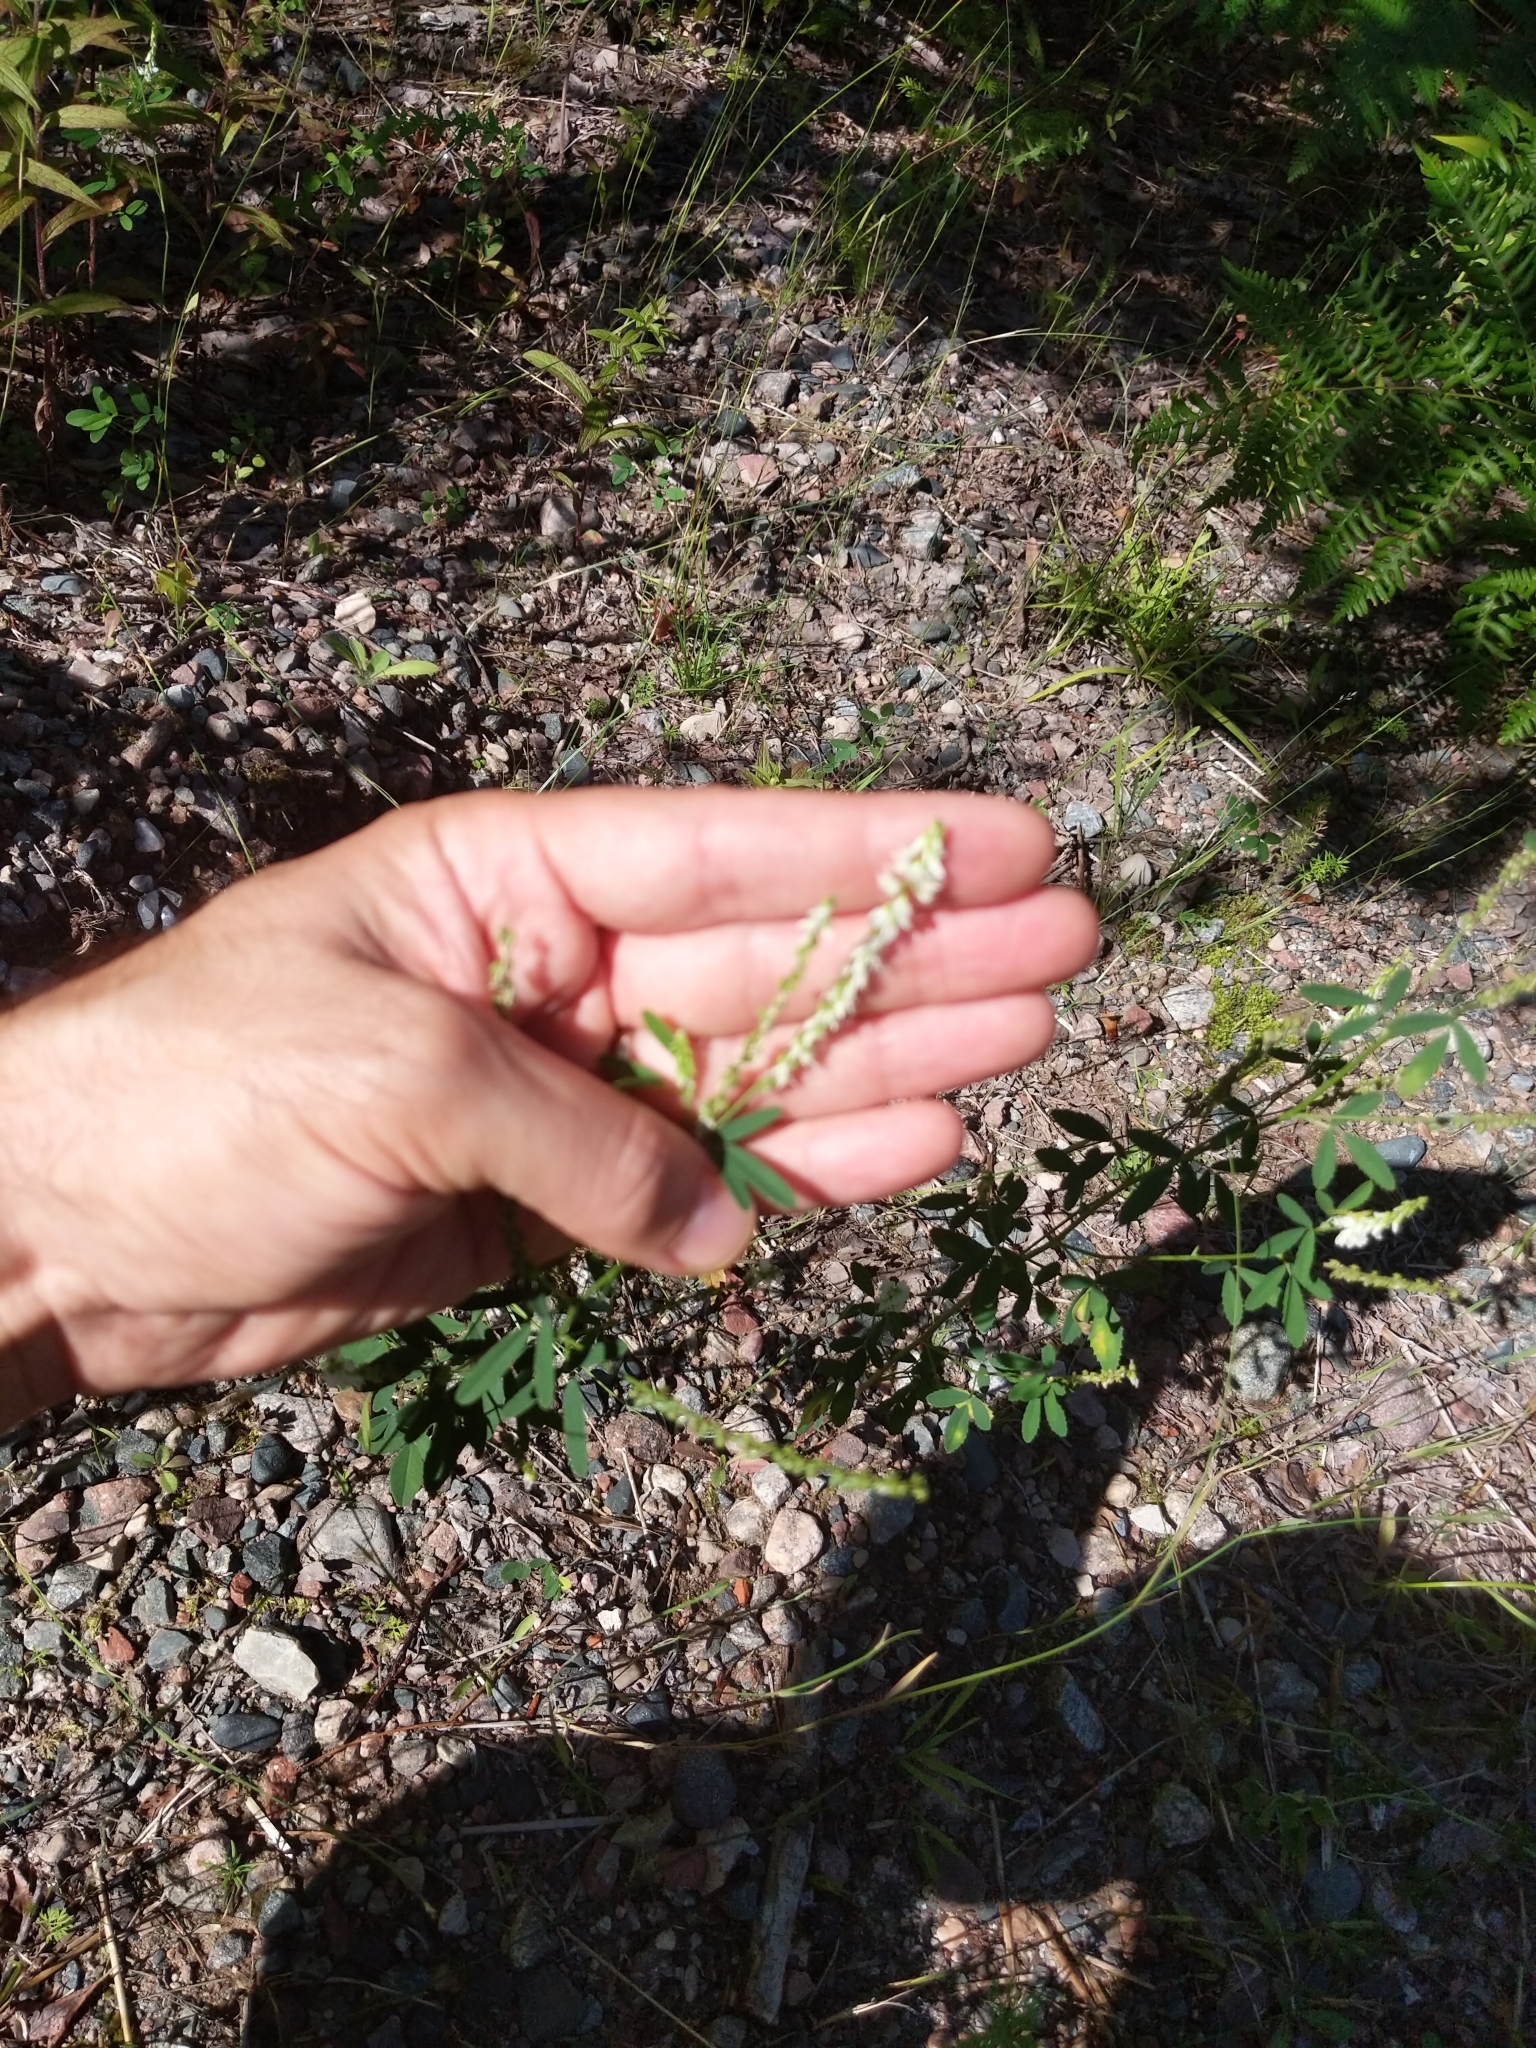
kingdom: Plantae
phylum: Tracheophyta
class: Magnoliopsida
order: Fabales
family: Fabaceae
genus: Melilotus
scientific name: Melilotus albus
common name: White melilot
